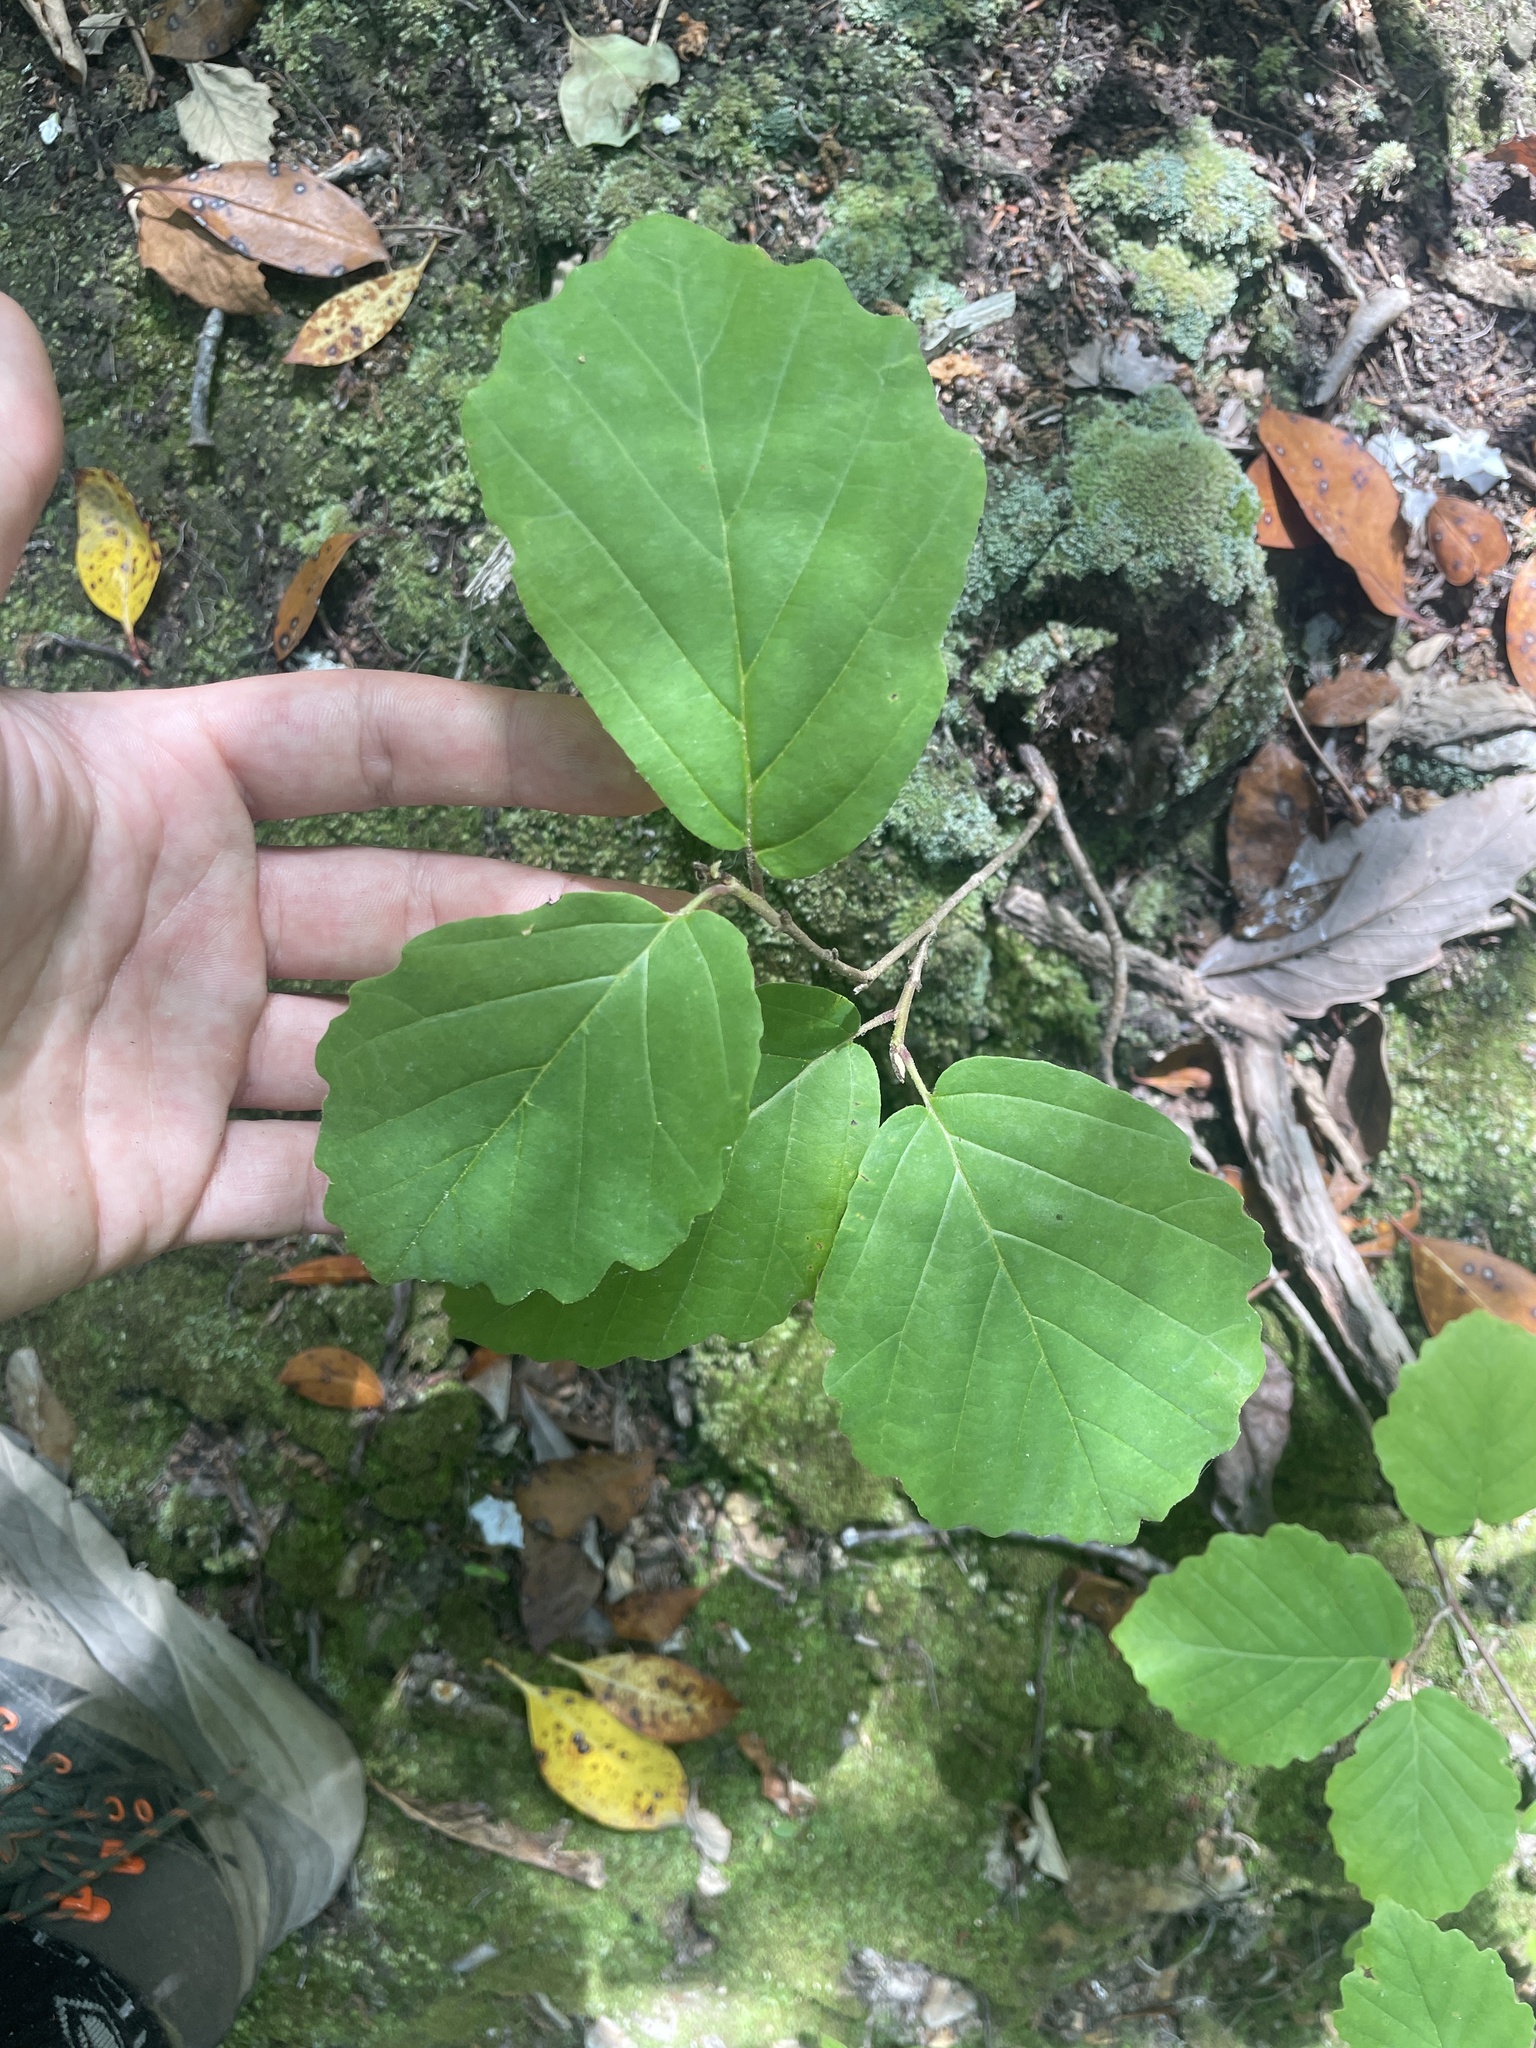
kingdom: Plantae
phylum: Tracheophyta
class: Magnoliopsida
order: Saxifragales
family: Hamamelidaceae
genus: Hamamelis
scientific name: Hamamelis virginiana
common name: Witch-hazel
